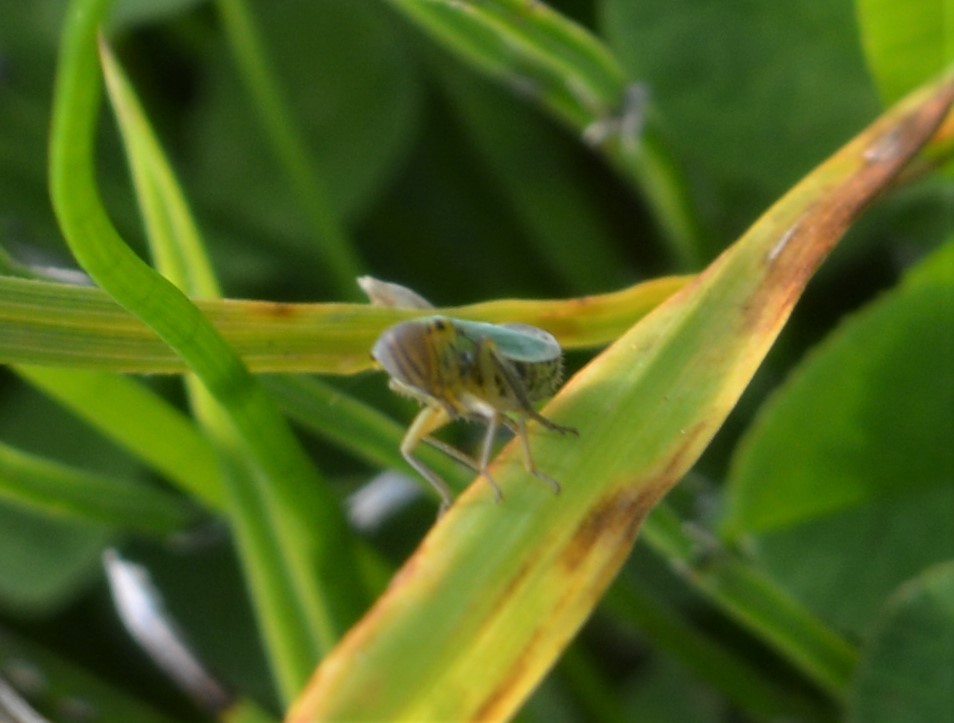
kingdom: Animalia
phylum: Arthropoda
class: Insecta
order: Hemiptera
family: Cicadellidae
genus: Cicadella
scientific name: Cicadella viridis
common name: Leafhopper
